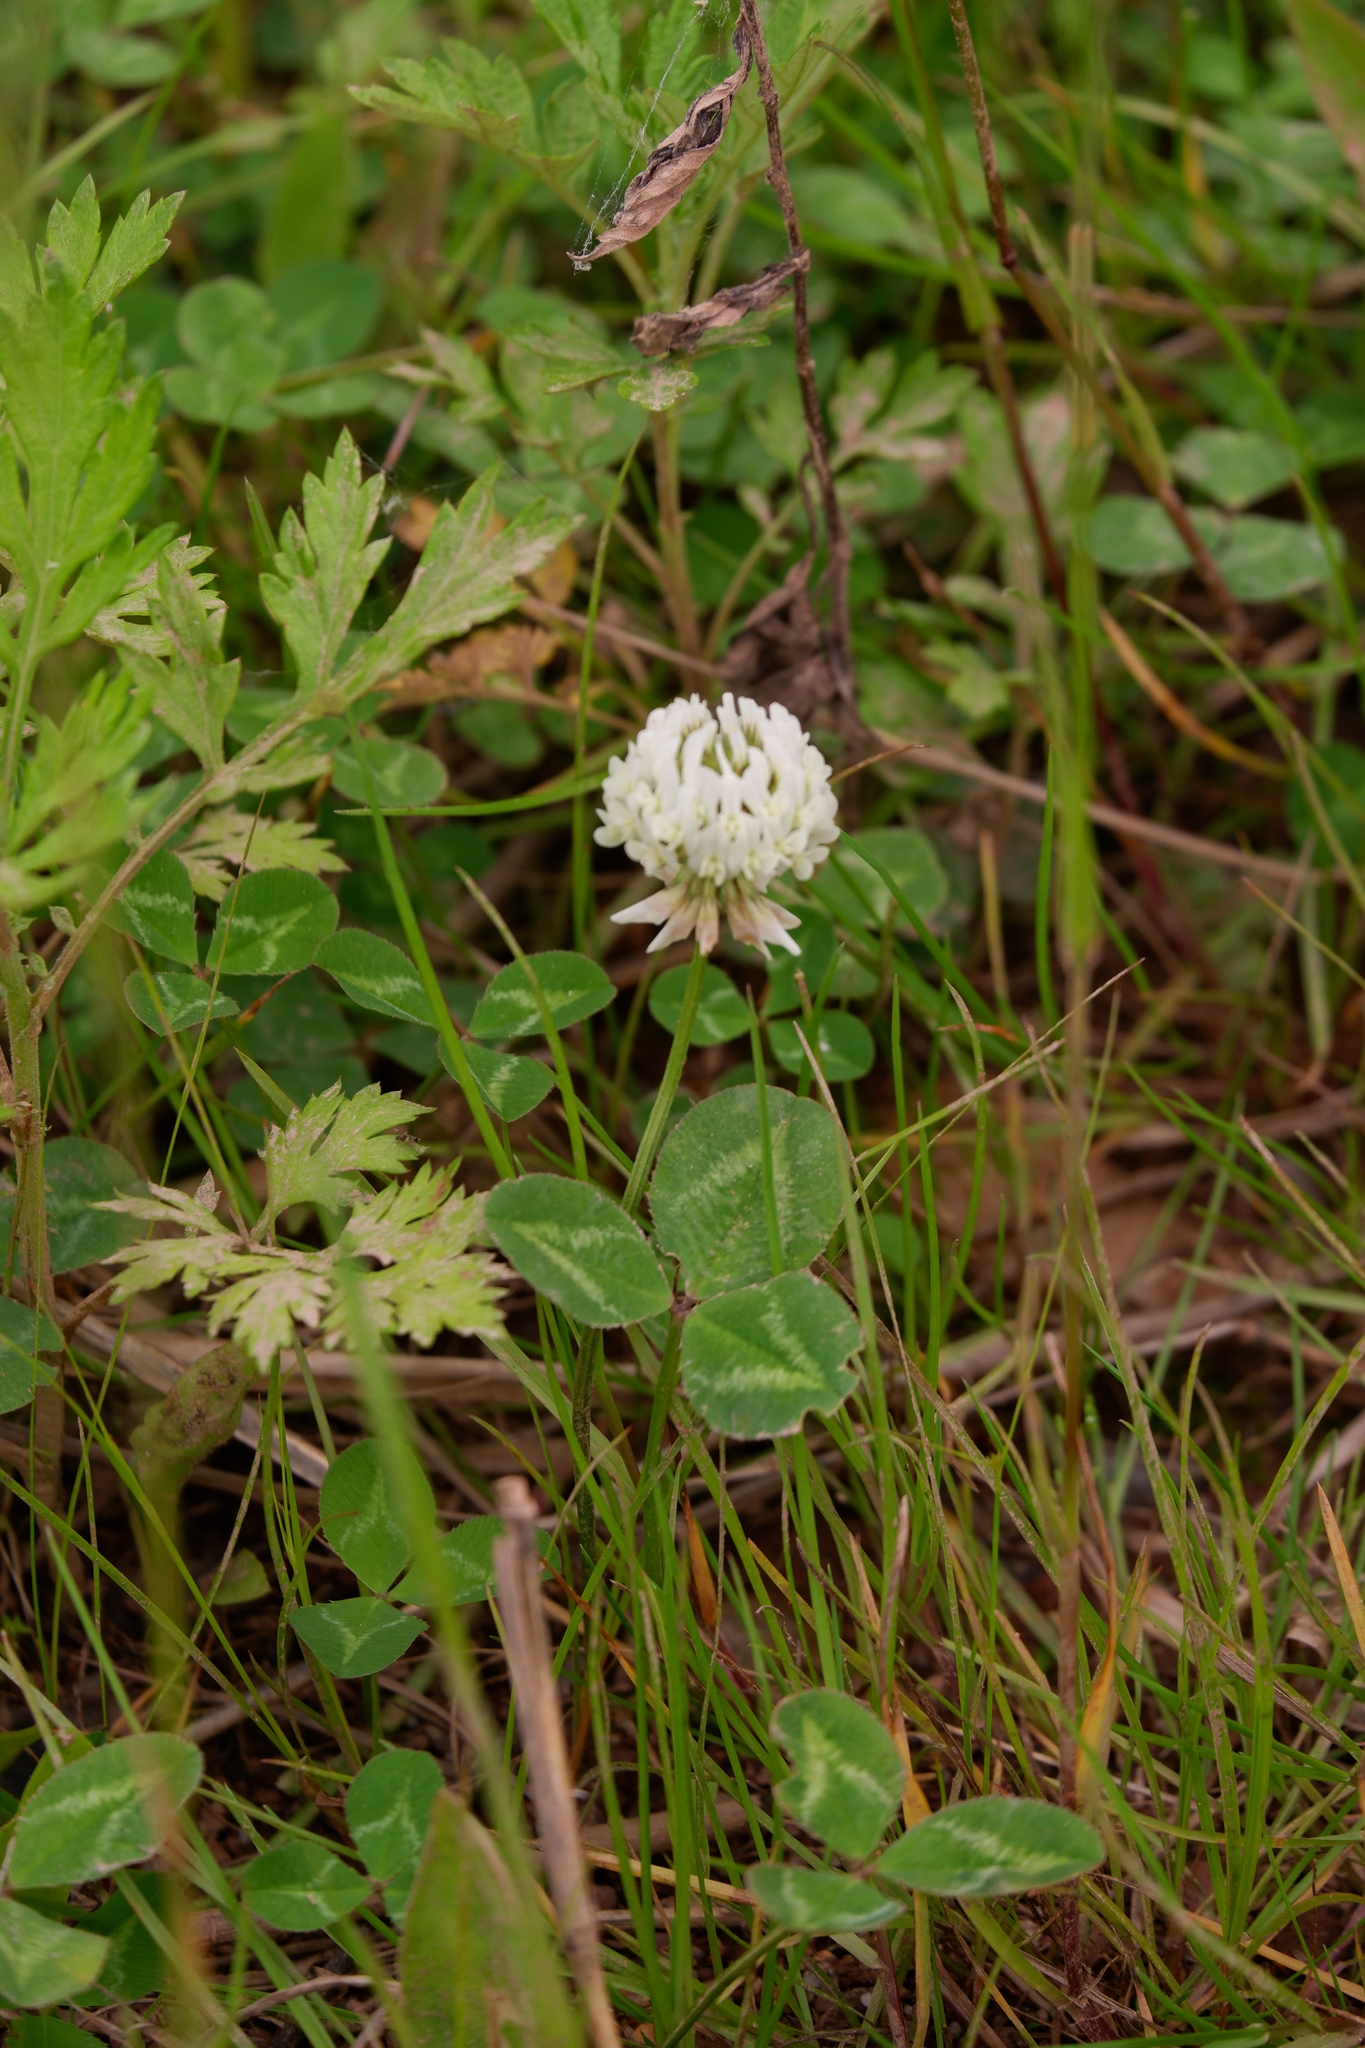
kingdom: Plantae
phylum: Tracheophyta
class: Magnoliopsida
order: Fabales
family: Fabaceae
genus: Trifolium
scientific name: Trifolium repens
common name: White clover
